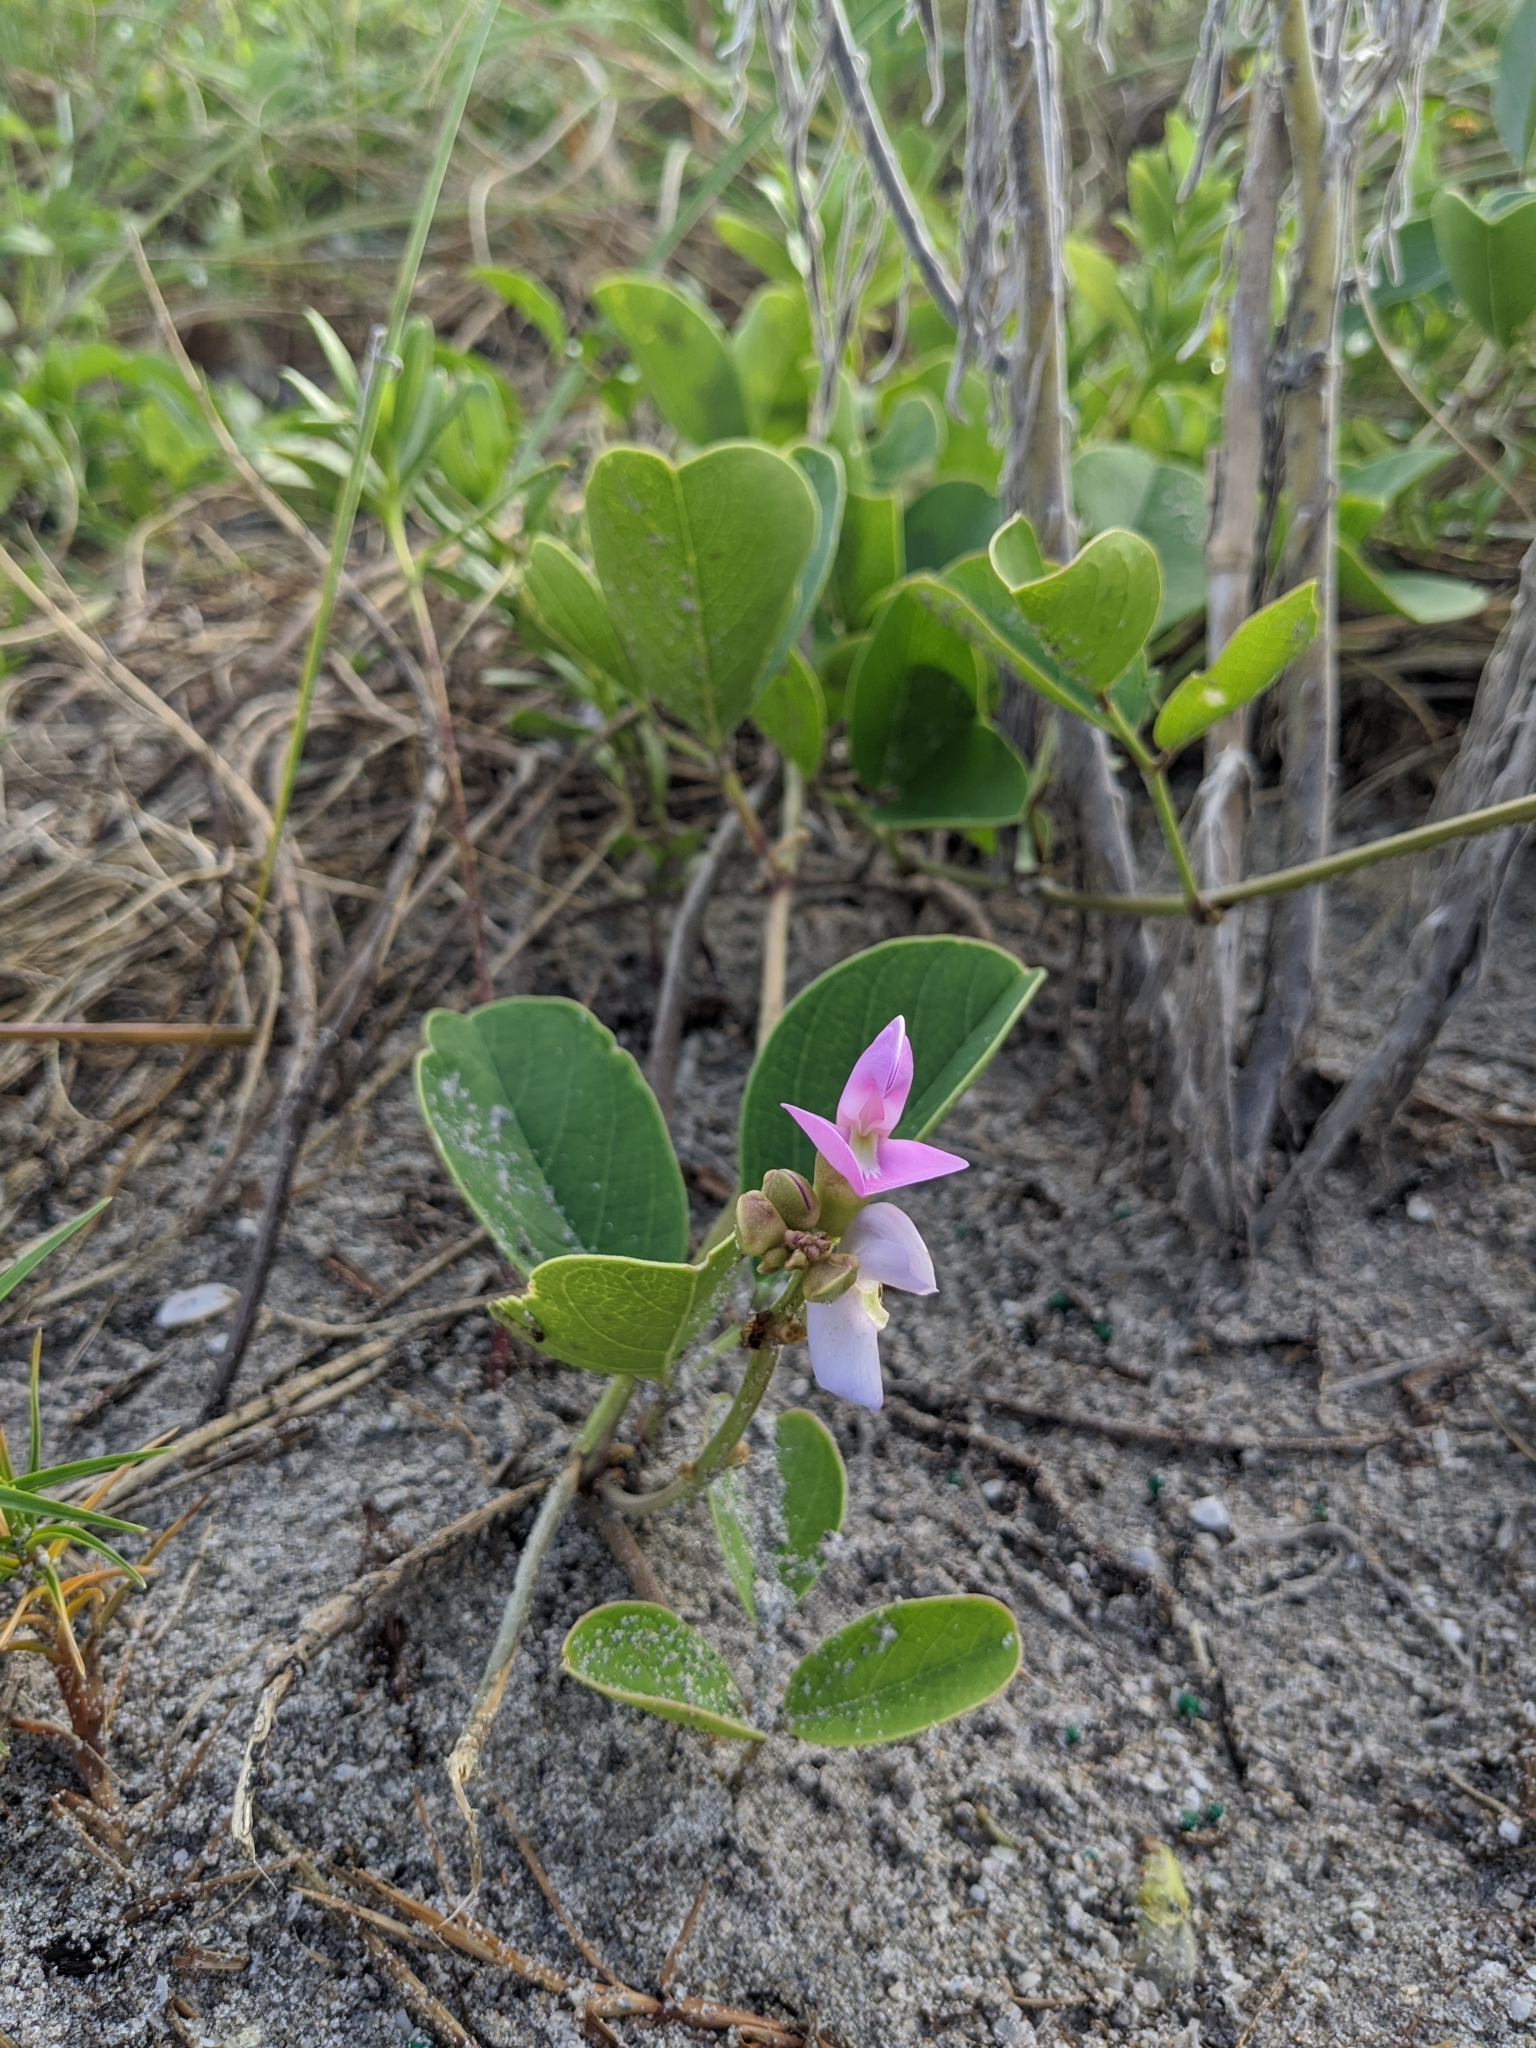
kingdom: Plantae
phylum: Tracheophyta
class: Magnoliopsida
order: Fabales
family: Fabaceae
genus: Canavalia
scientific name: Canavalia rosea
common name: Beach-bean
